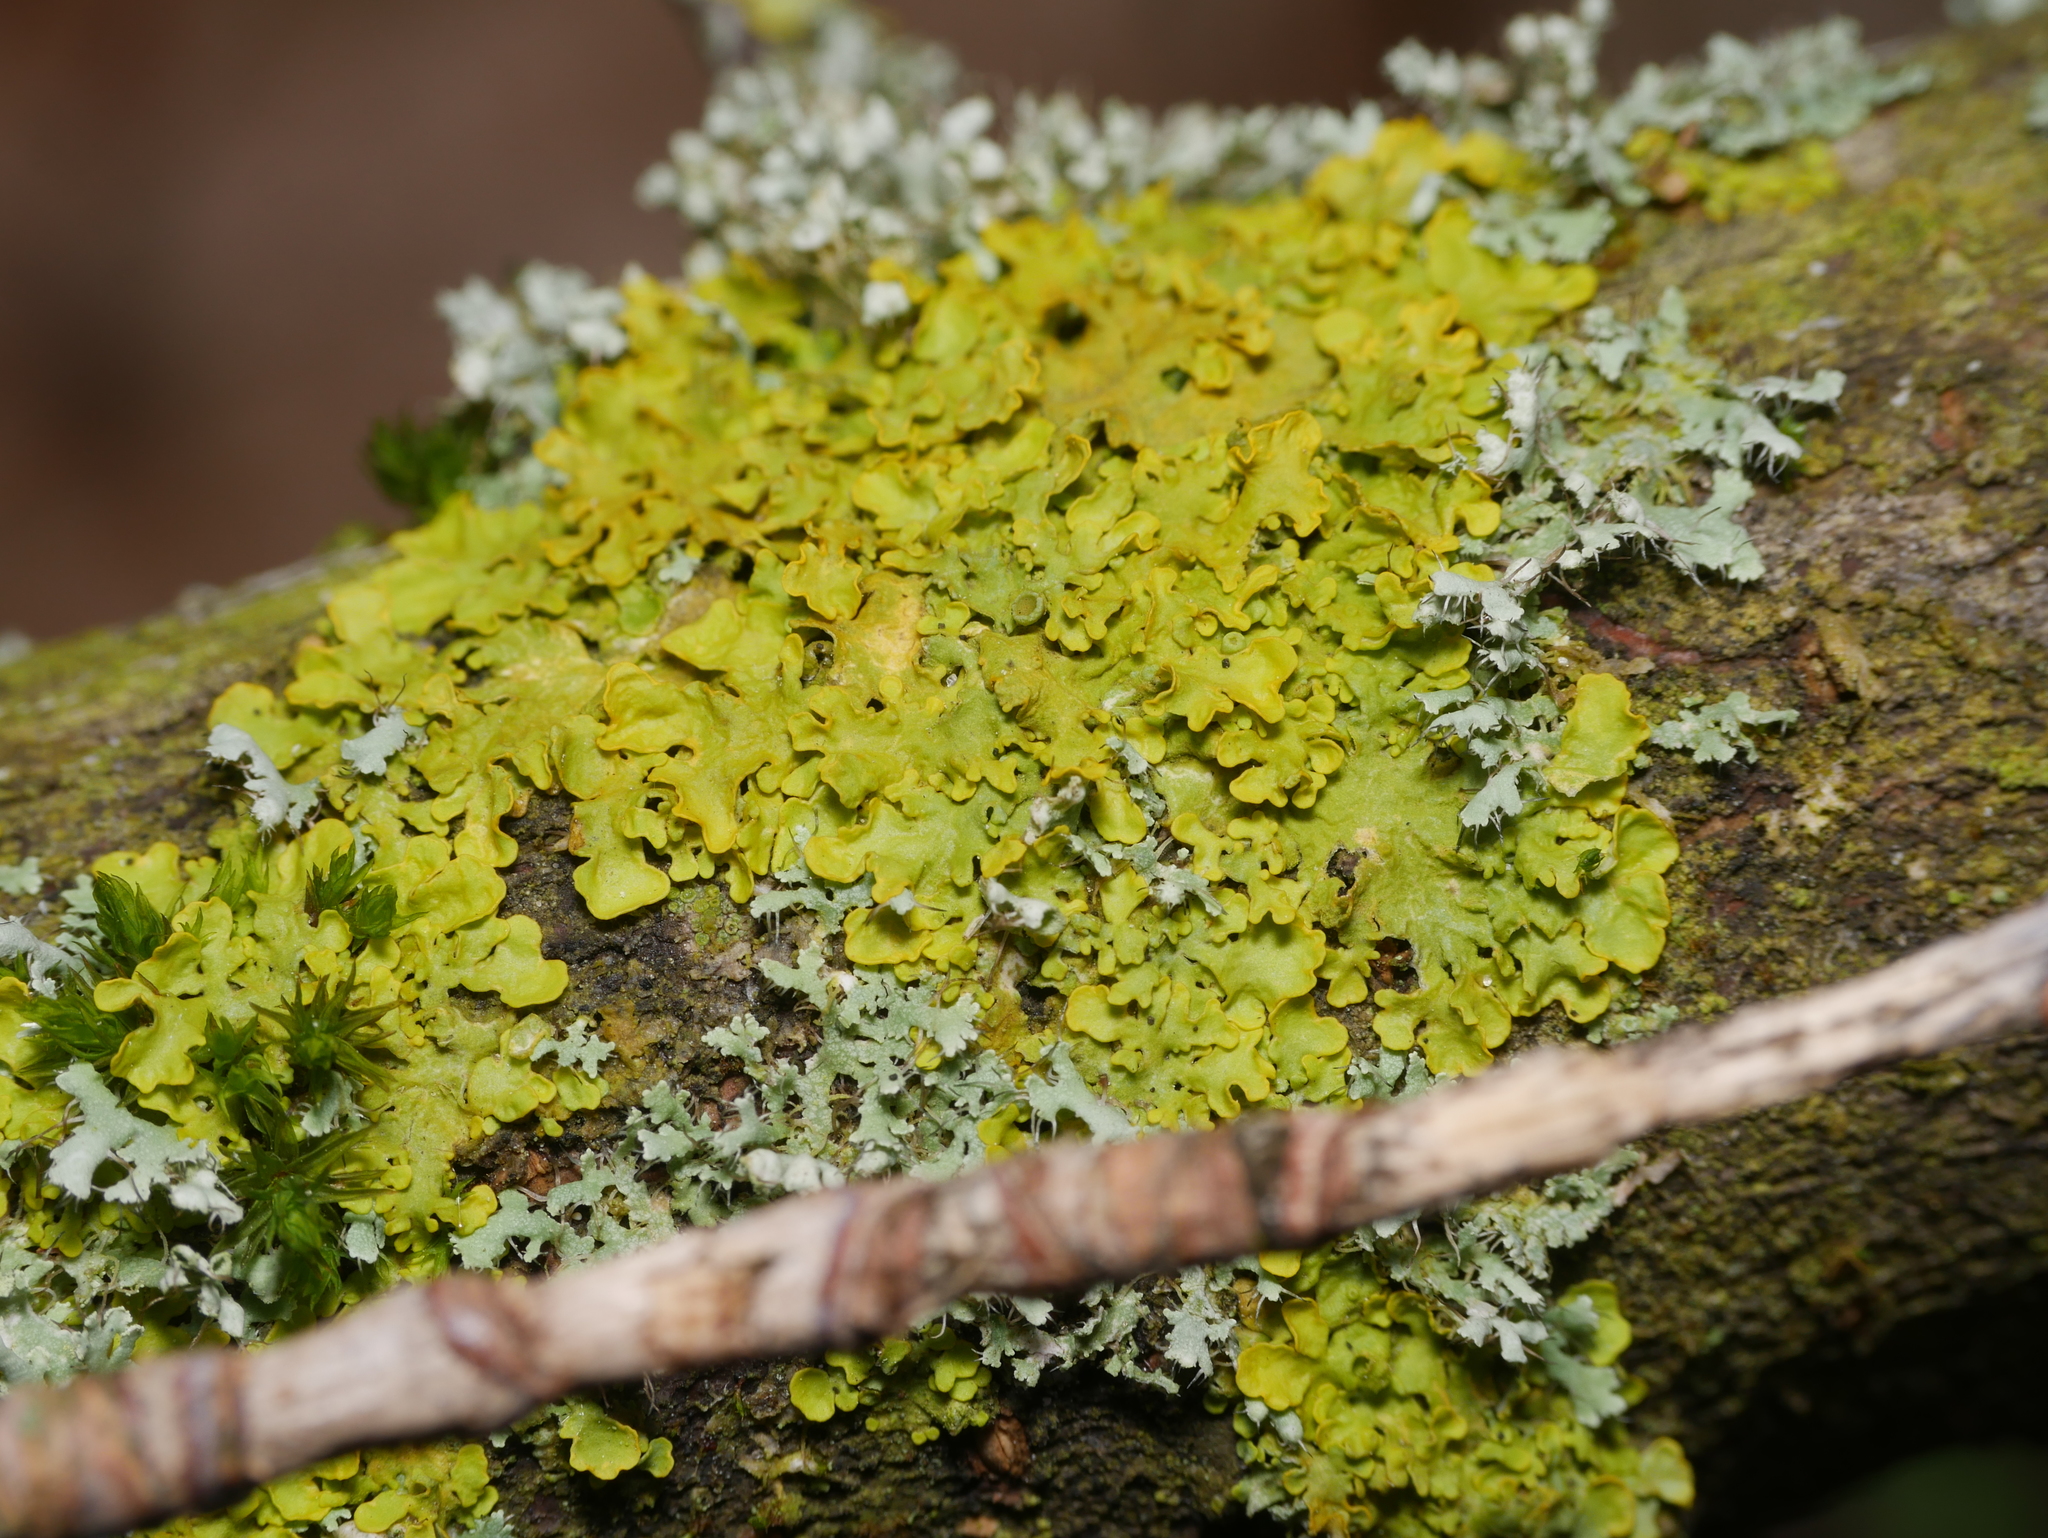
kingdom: Fungi
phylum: Ascomycota
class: Lecanoromycetes
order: Teloschistales
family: Teloschistaceae
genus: Xanthoria
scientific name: Xanthoria parietina
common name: Common orange lichen
